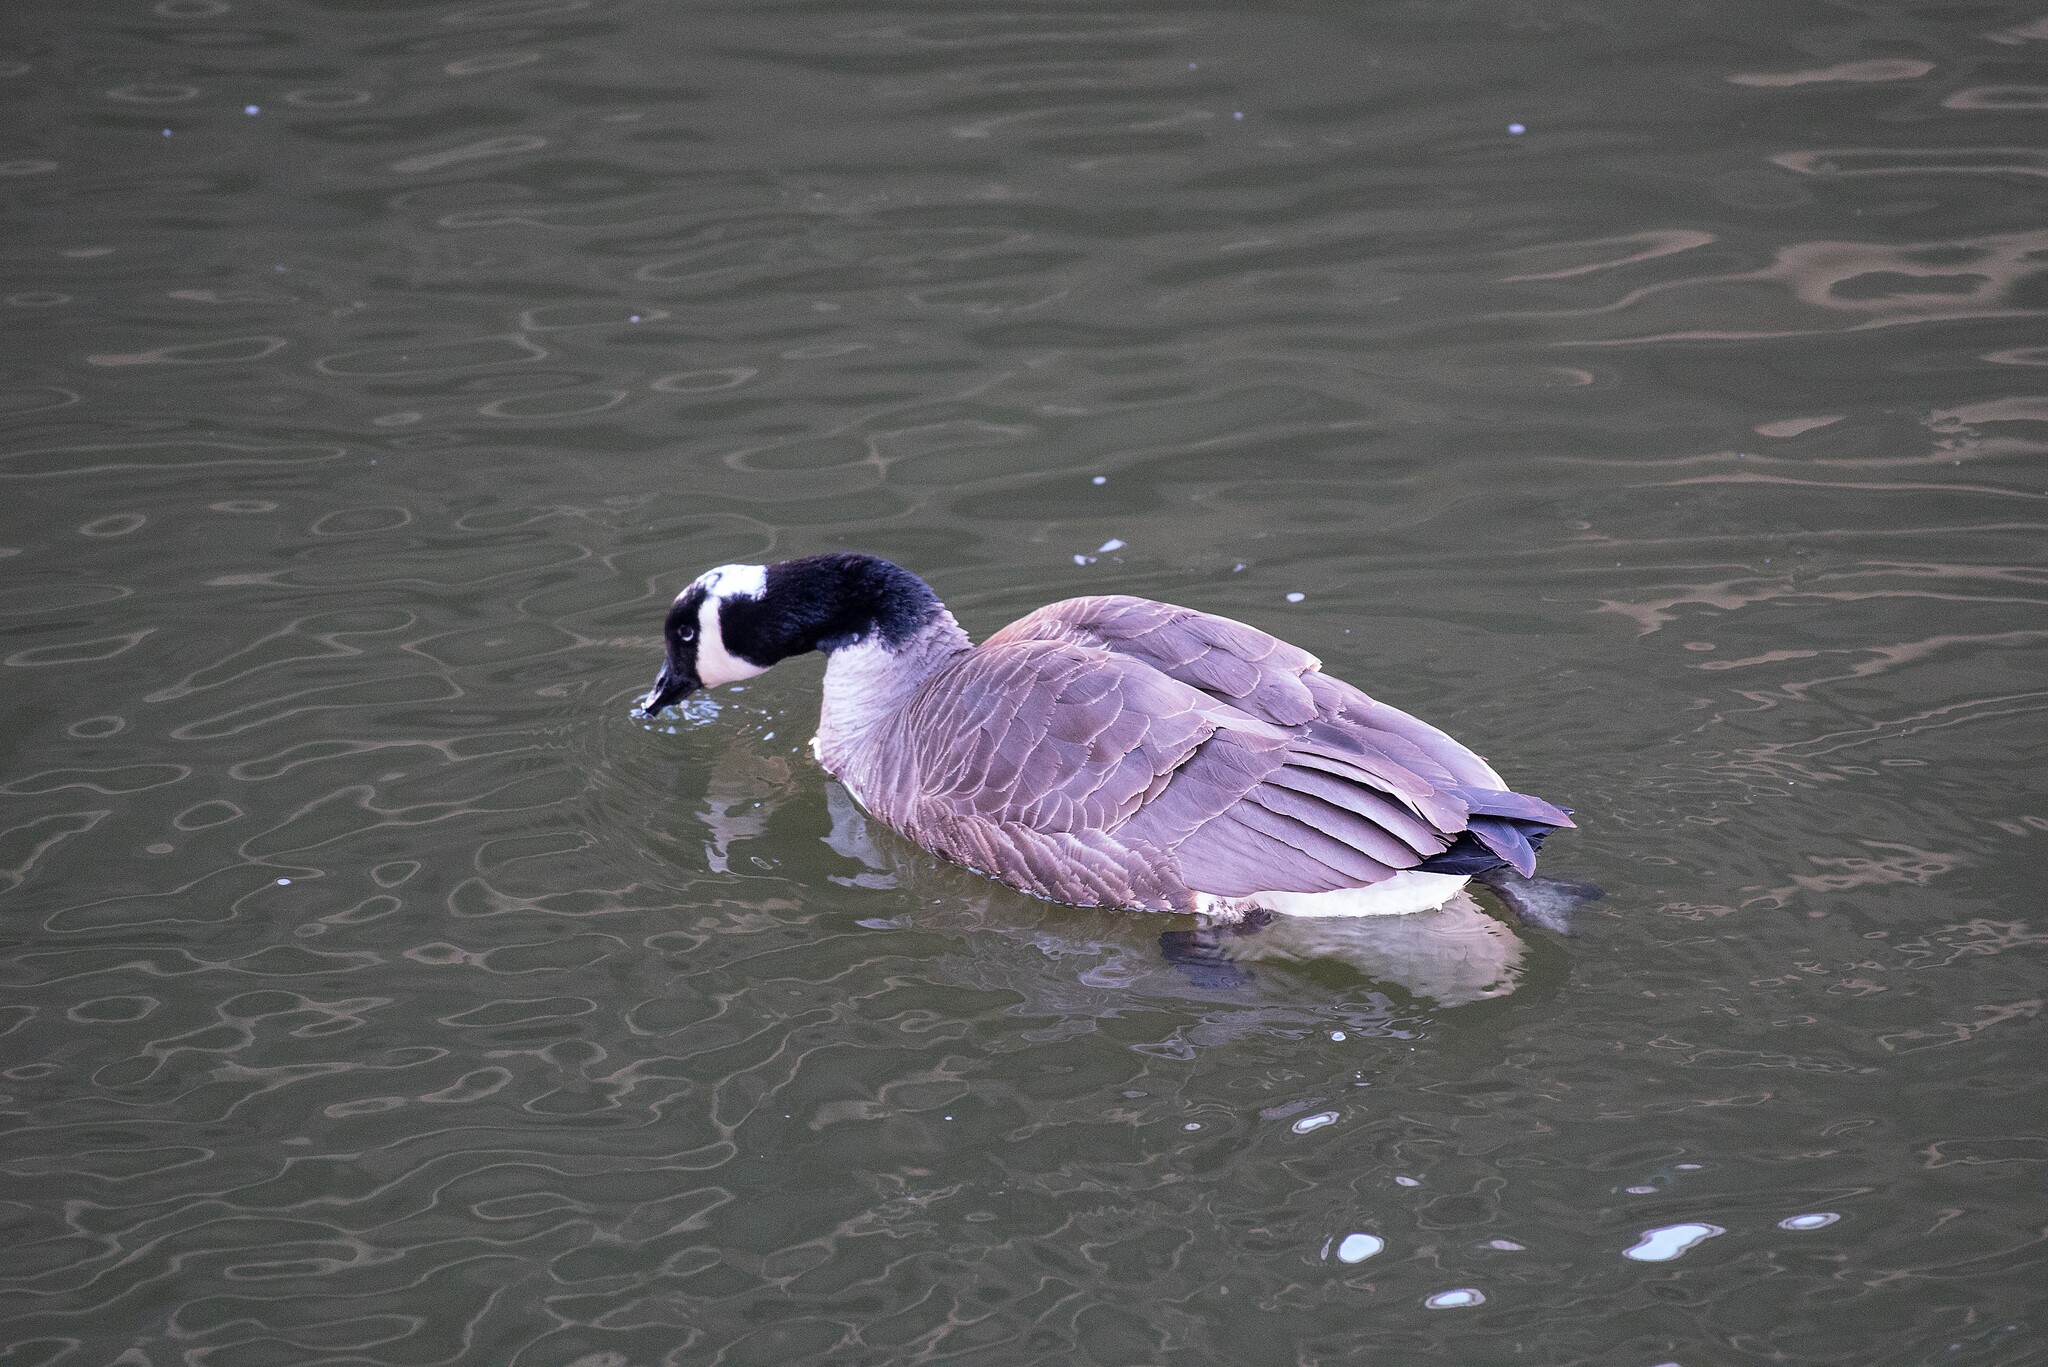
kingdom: Animalia
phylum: Chordata
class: Aves
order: Anseriformes
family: Anatidae
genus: Branta
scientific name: Branta canadensis
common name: Canada goose
